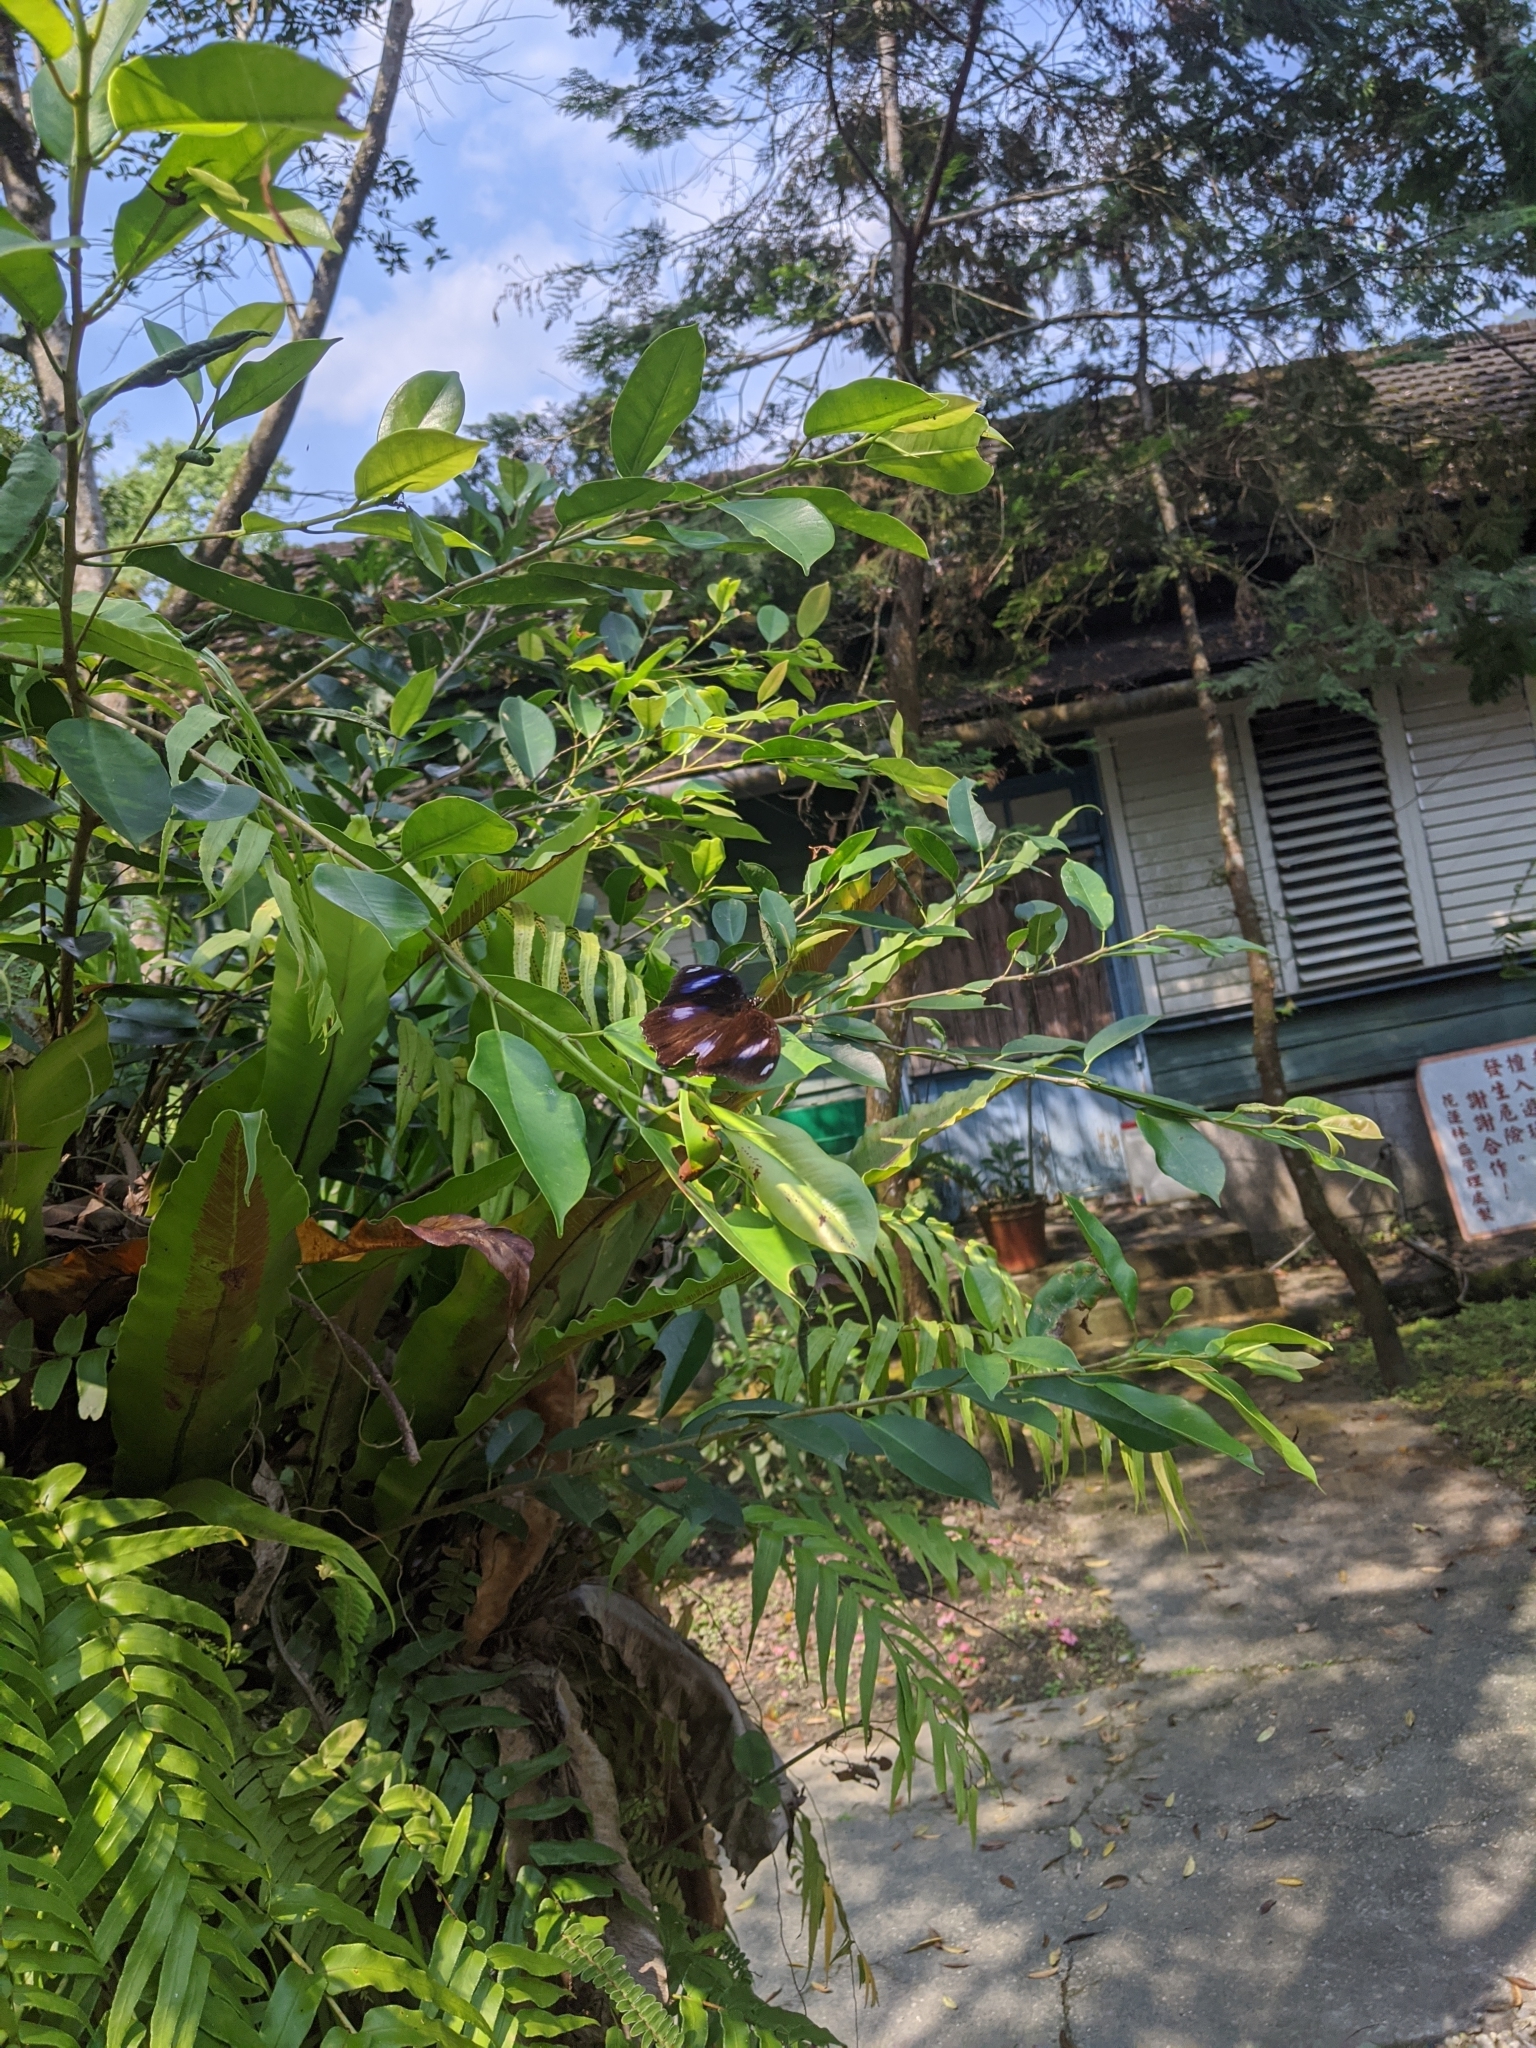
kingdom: Animalia
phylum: Arthropoda
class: Insecta
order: Lepidoptera
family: Nymphalidae
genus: Hypolimnas
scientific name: Hypolimnas bolina
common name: Great eggfly
